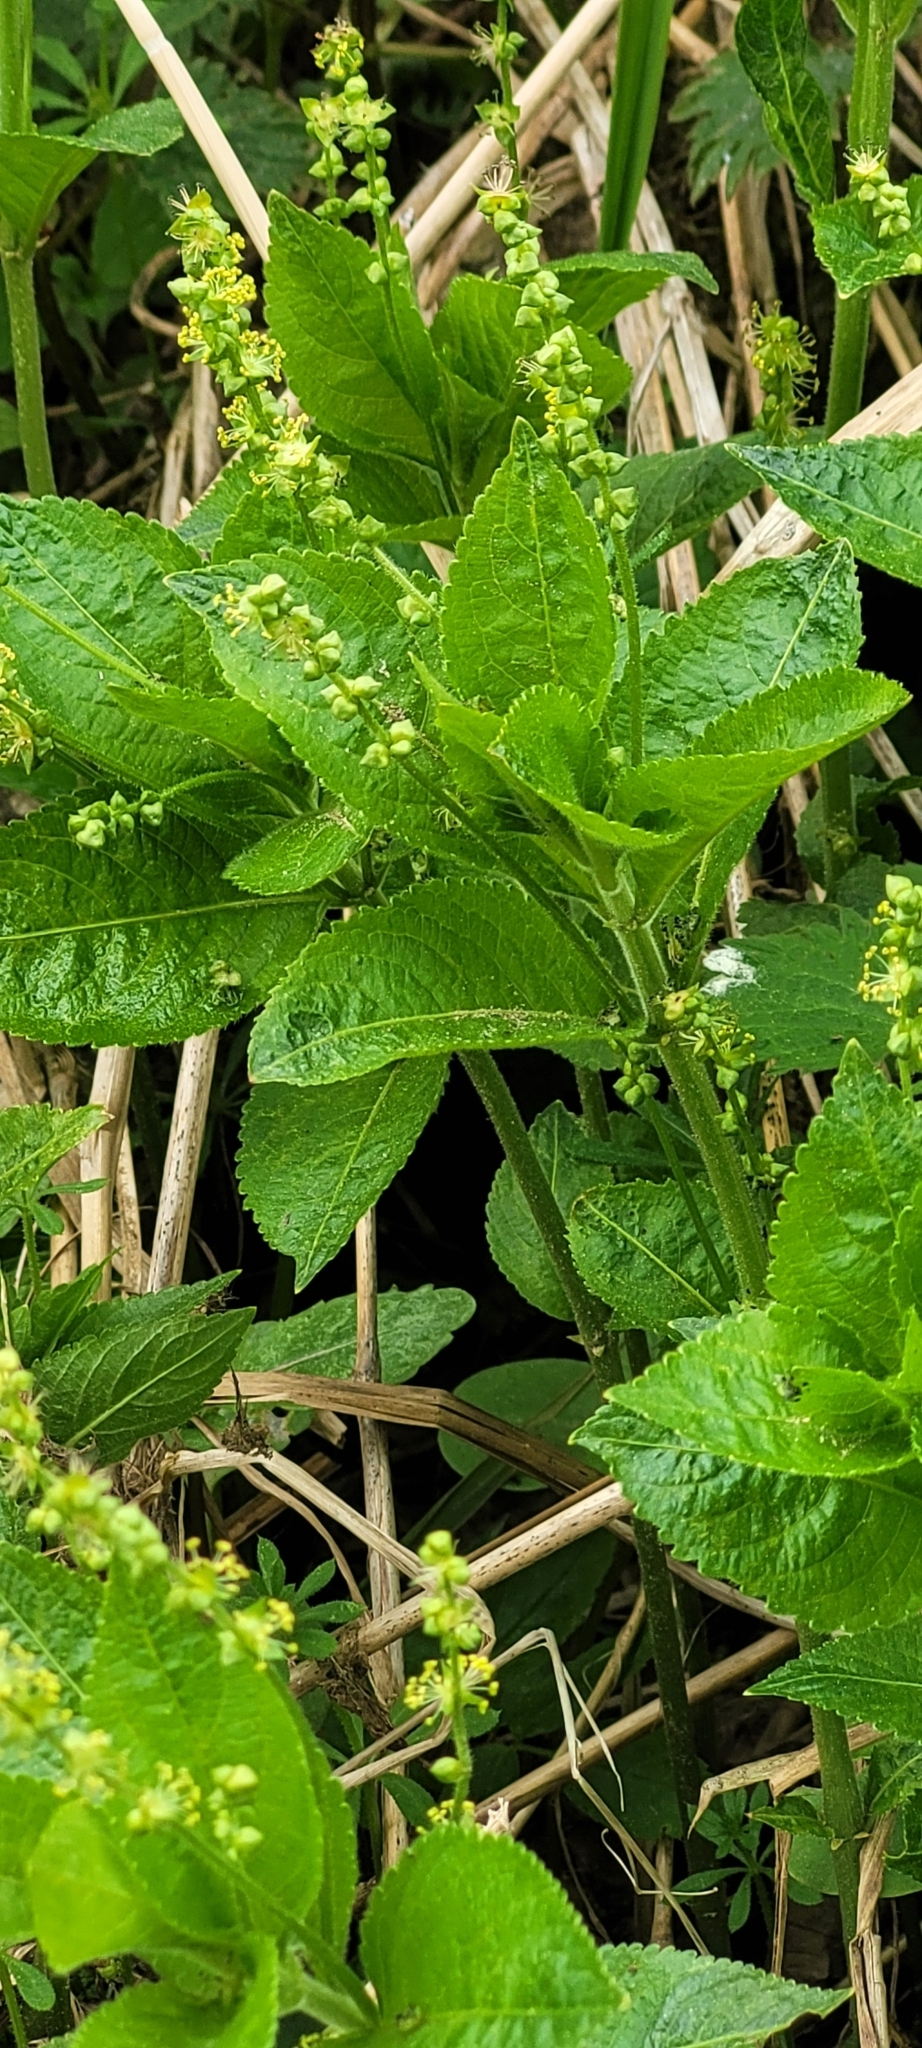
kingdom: Plantae
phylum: Tracheophyta
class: Magnoliopsida
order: Malpighiales
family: Euphorbiaceae
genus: Mercurialis
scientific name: Mercurialis perennis
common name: Dog mercury
